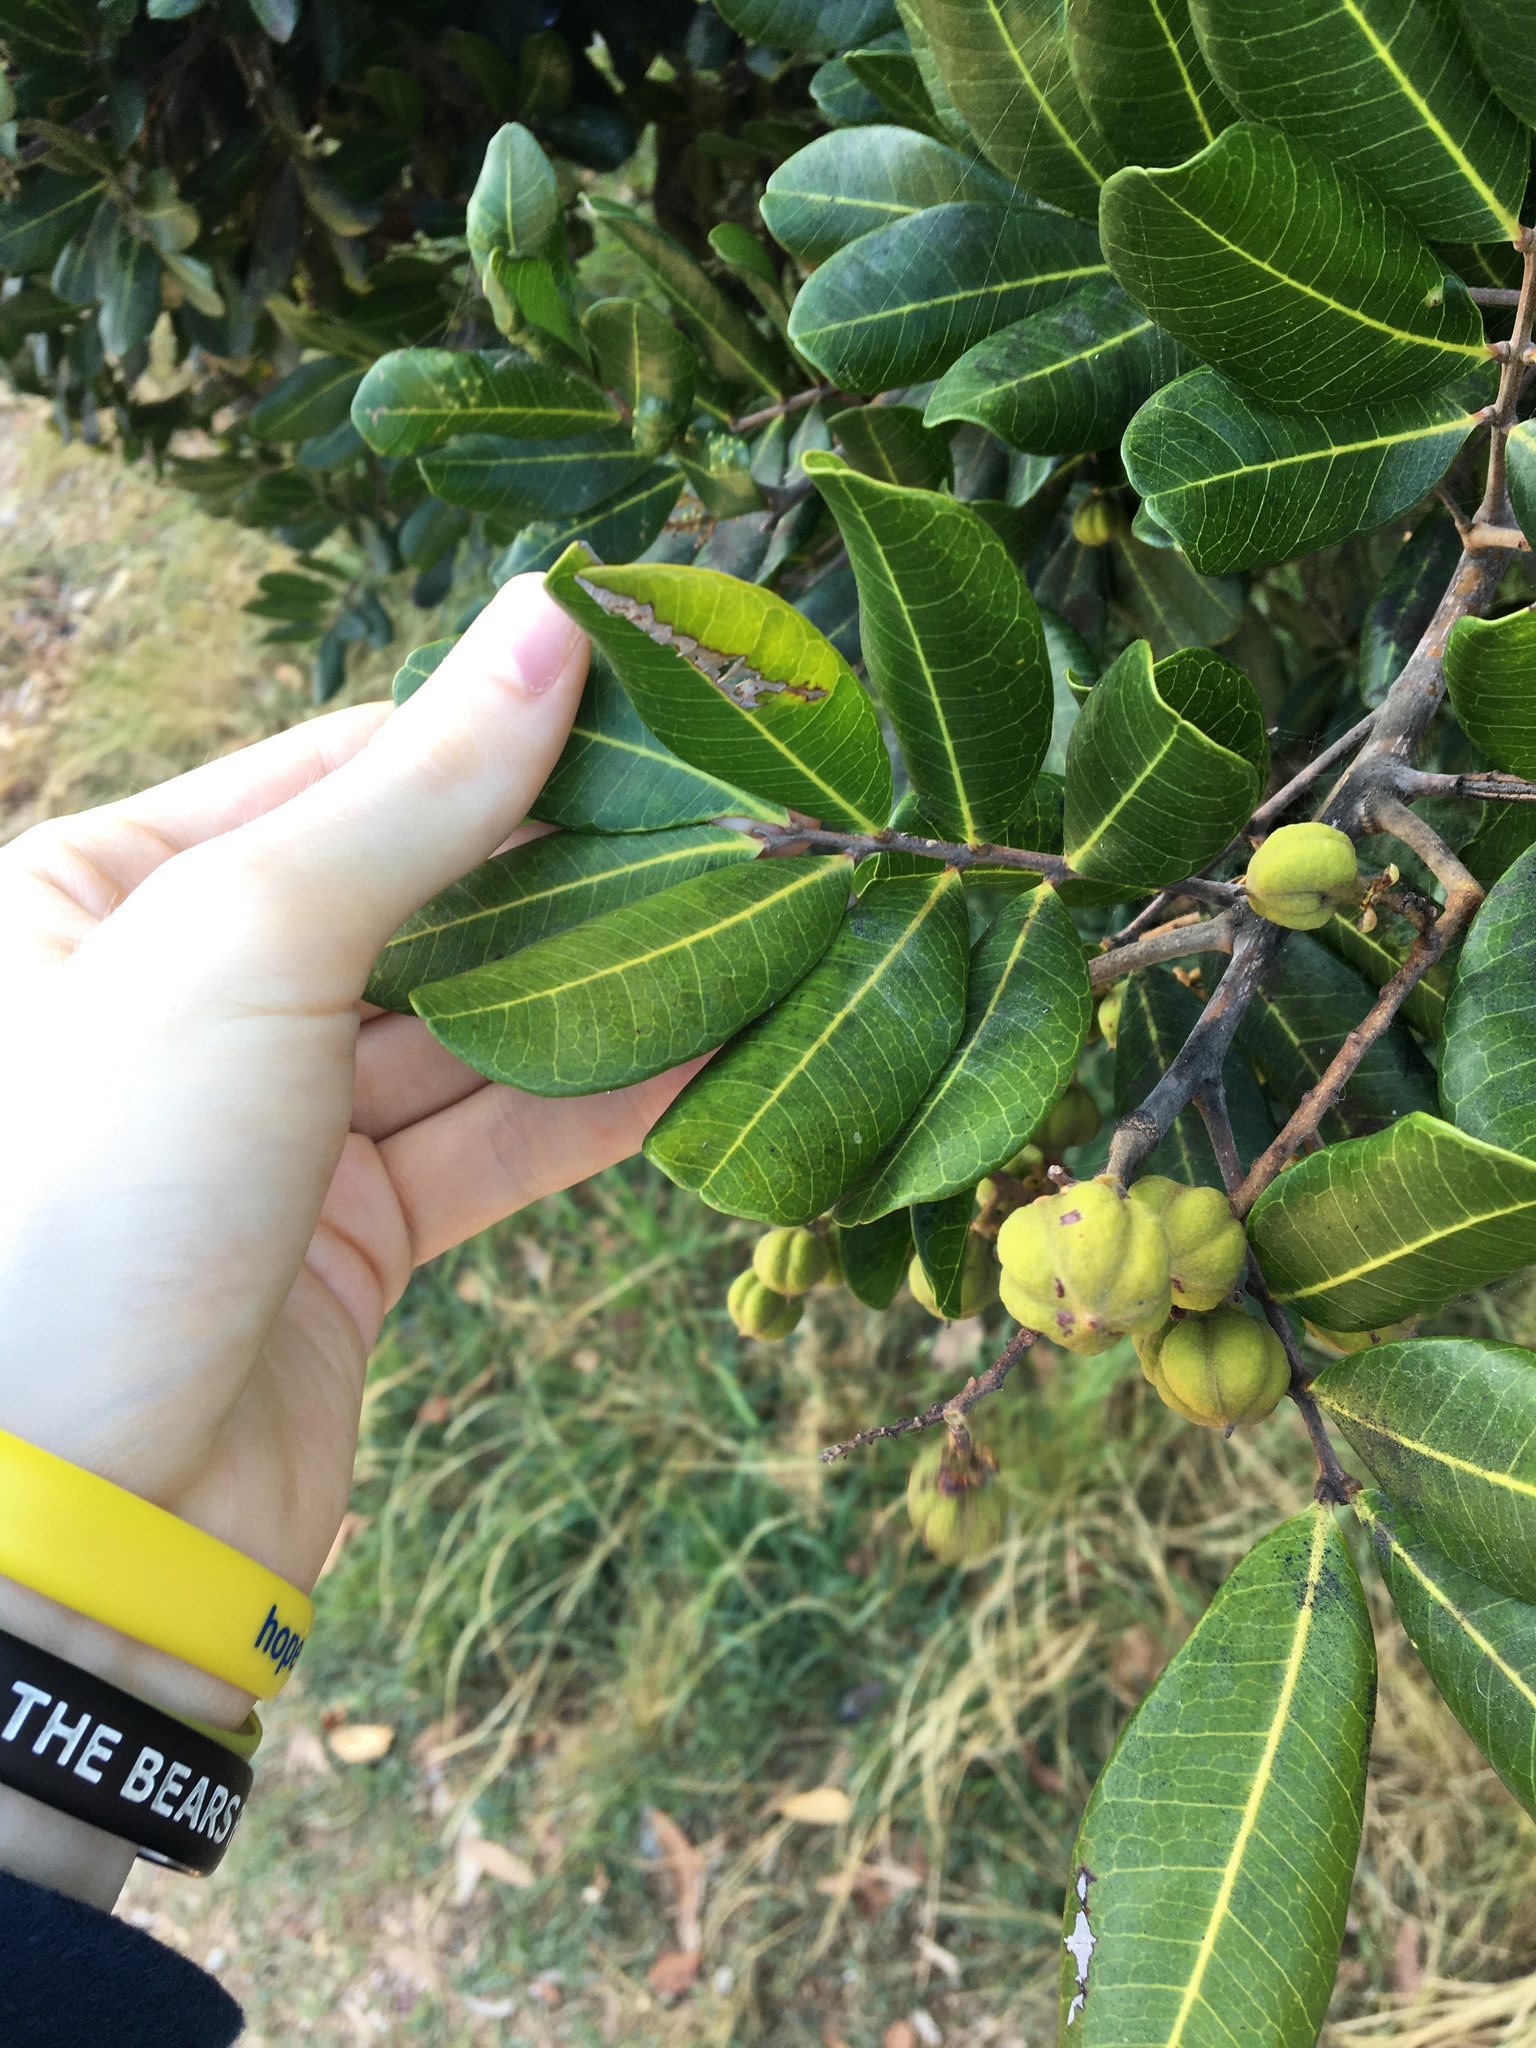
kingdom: Plantae
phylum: Tracheophyta
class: Magnoliopsida
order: Sapindales
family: Sapindaceae
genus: Cupaniopsis
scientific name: Cupaniopsis anacardioides
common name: Carrotwood
